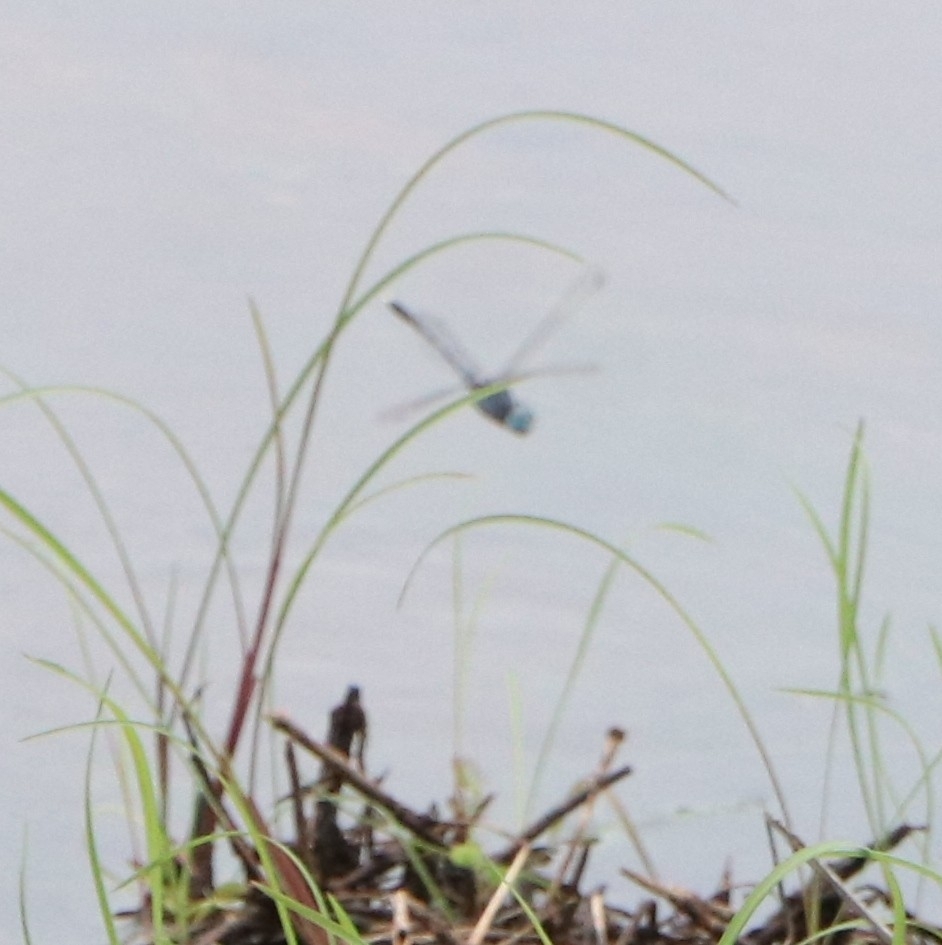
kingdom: Animalia
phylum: Arthropoda
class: Insecta
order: Odonata
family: Libellulidae
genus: Diplacodes
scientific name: Diplacodes trivialis
